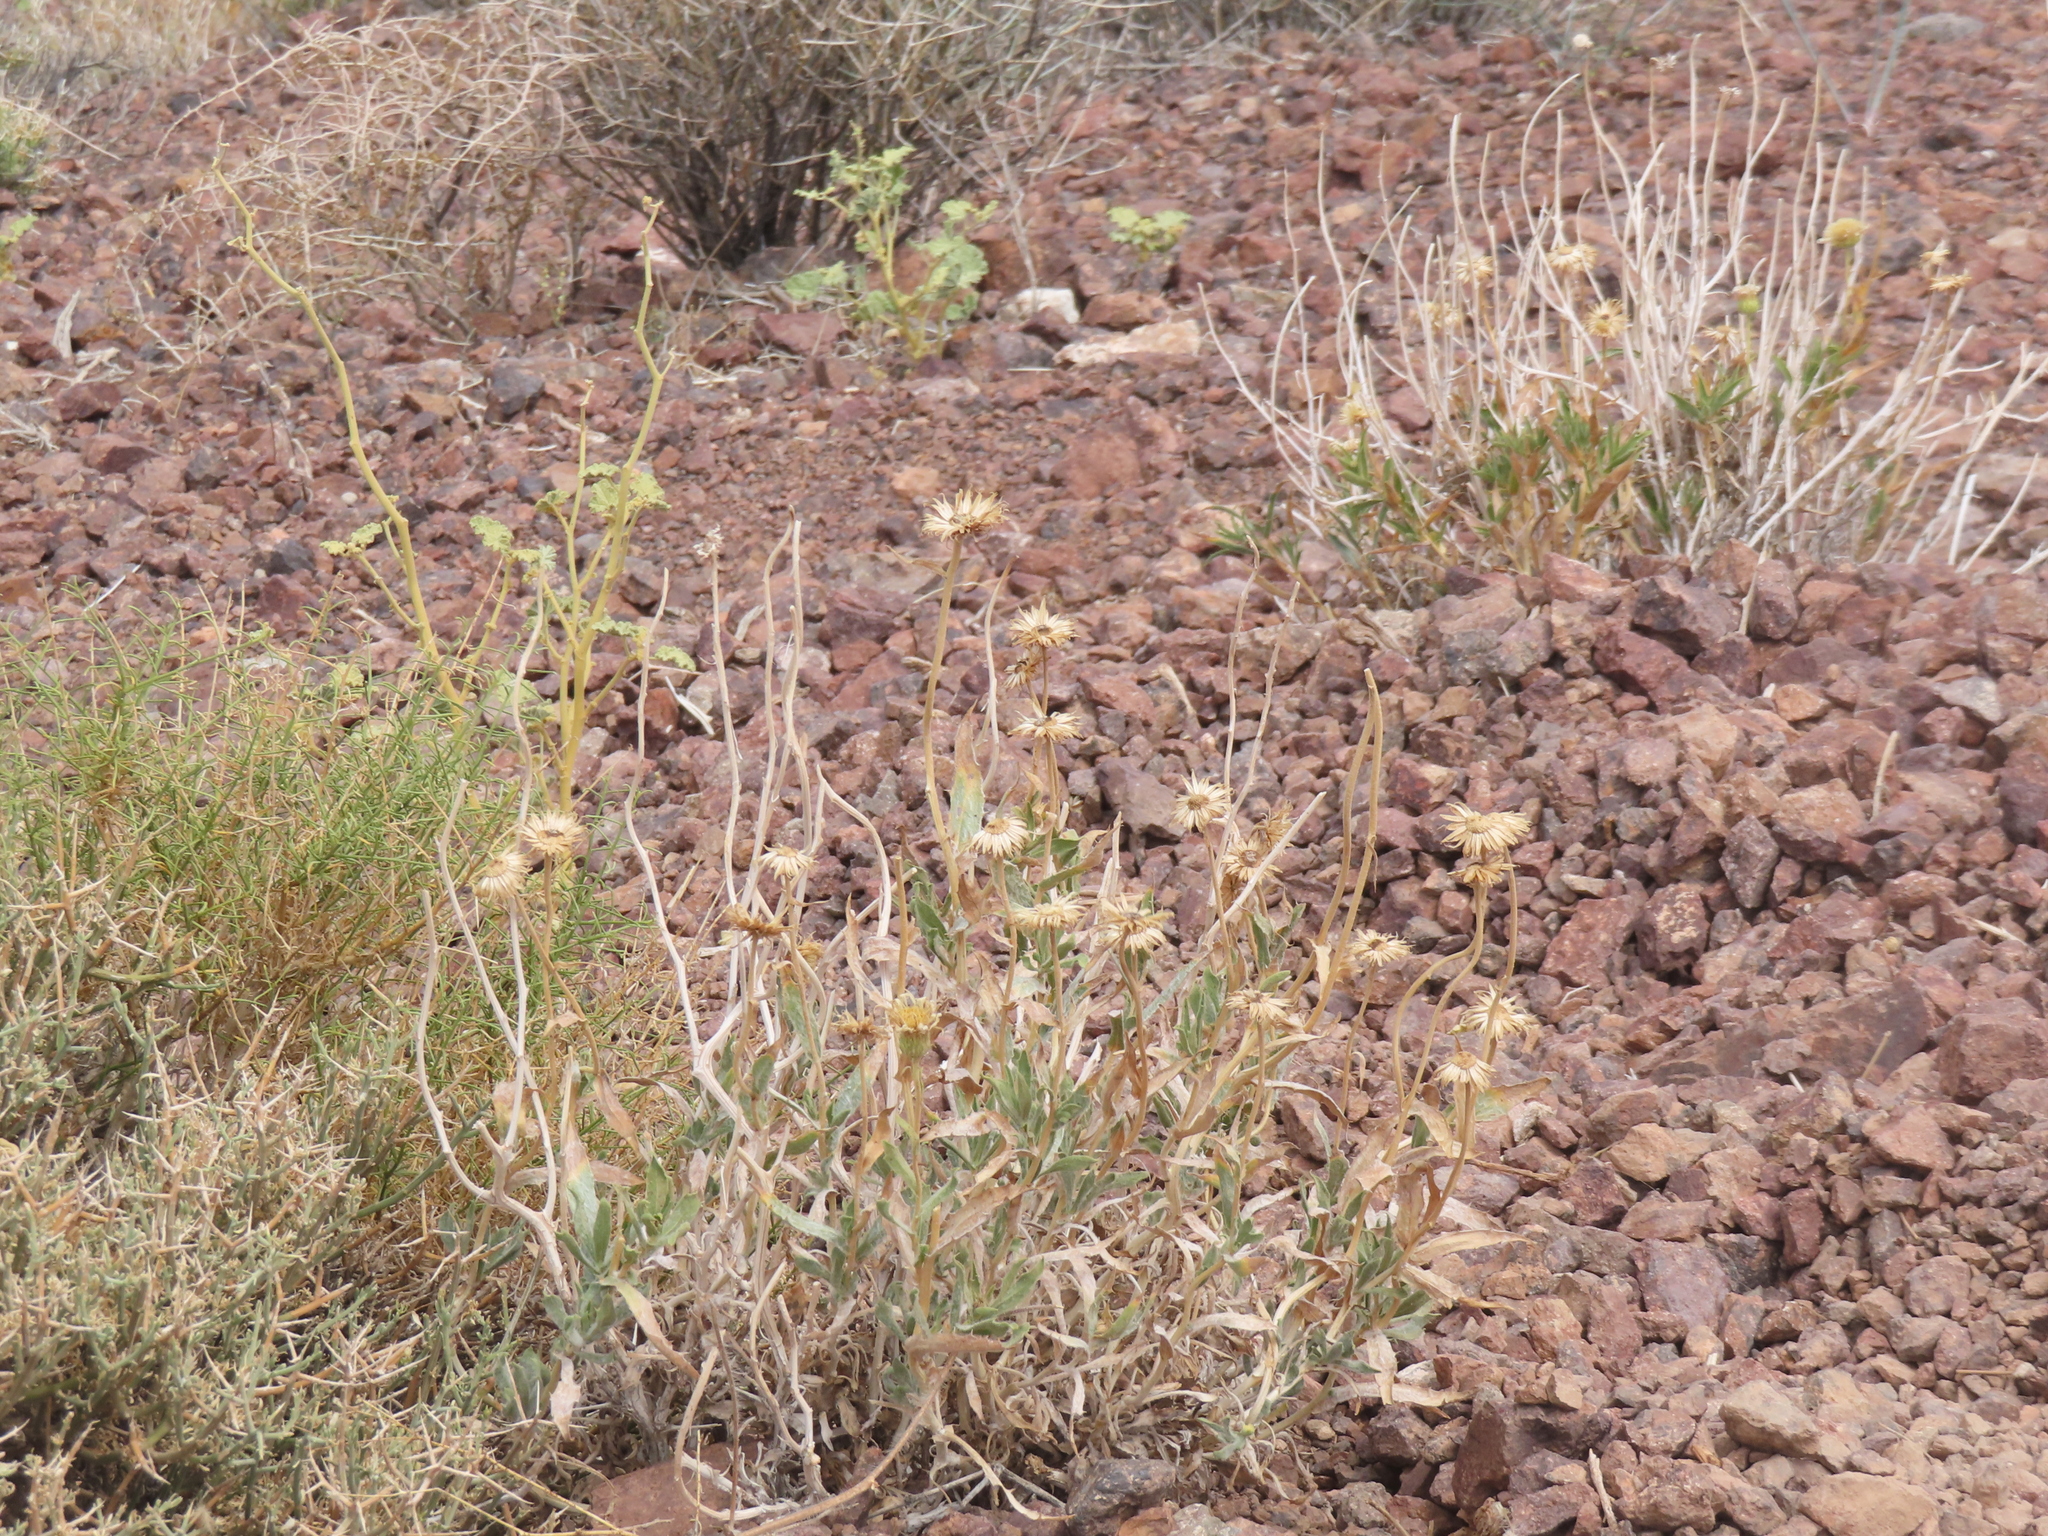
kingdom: Plantae
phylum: Tracheophyta
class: Magnoliopsida
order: Asterales
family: Asteraceae
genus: Xylorhiza
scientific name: Xylorhiza tortifolia
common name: Hurt-leaf woody-aster
